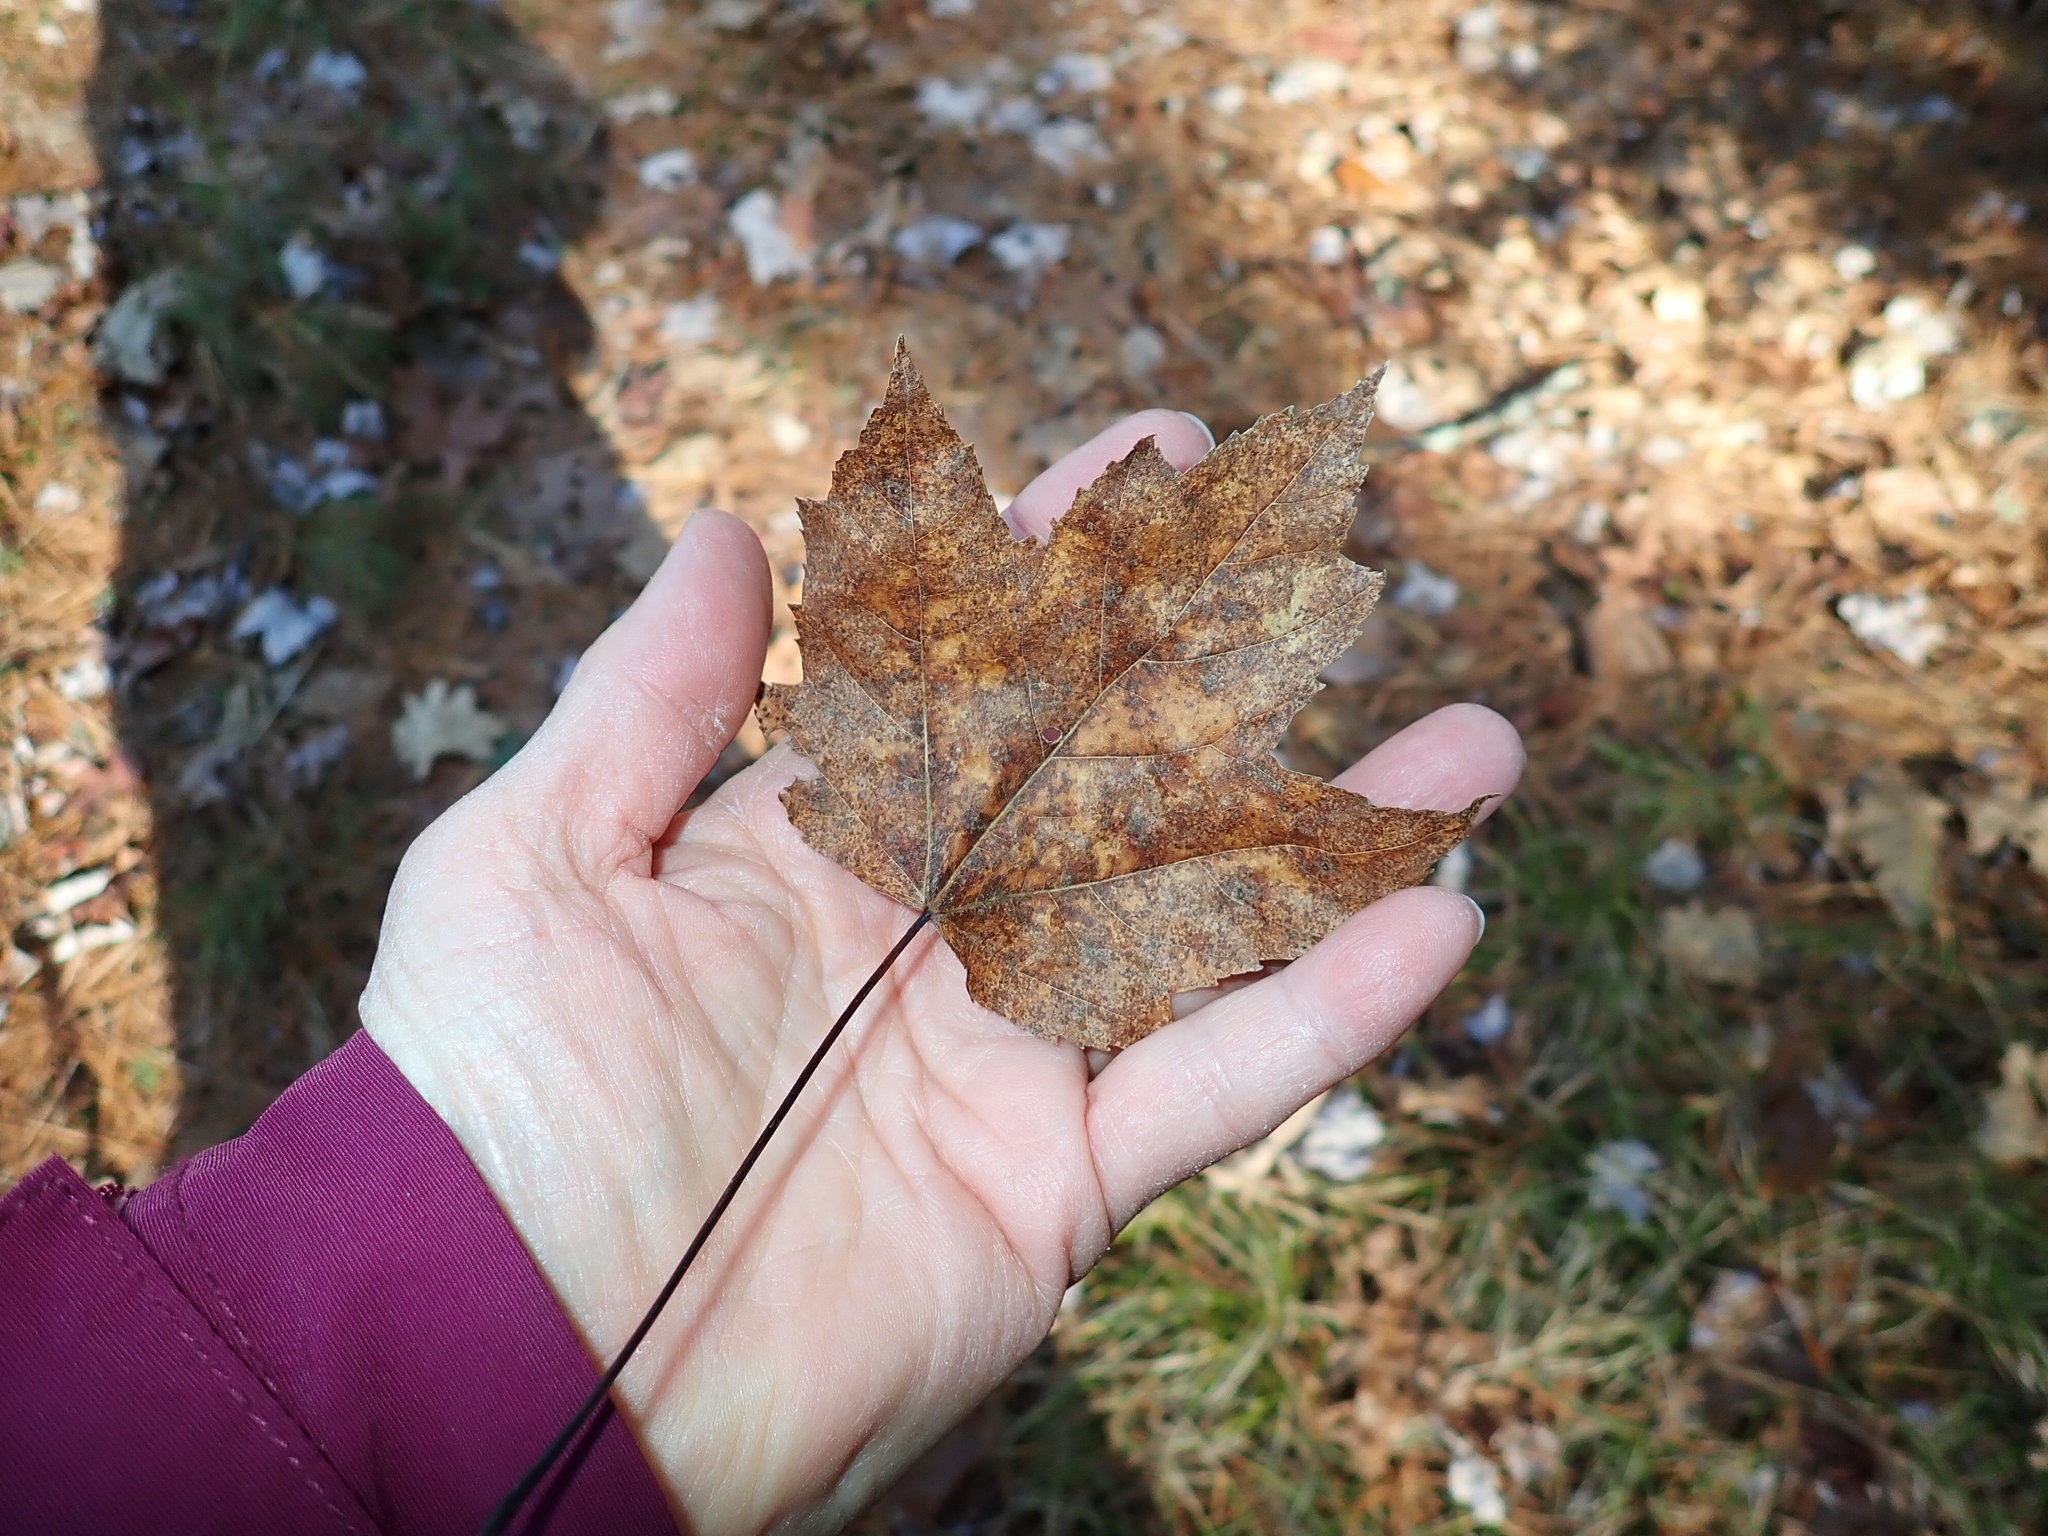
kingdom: Plantae
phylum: Tracheophyta
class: Magnoliopsida
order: Sapindales
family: Sapindaceae
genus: Acer
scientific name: Acer rubrum
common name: Red maple
